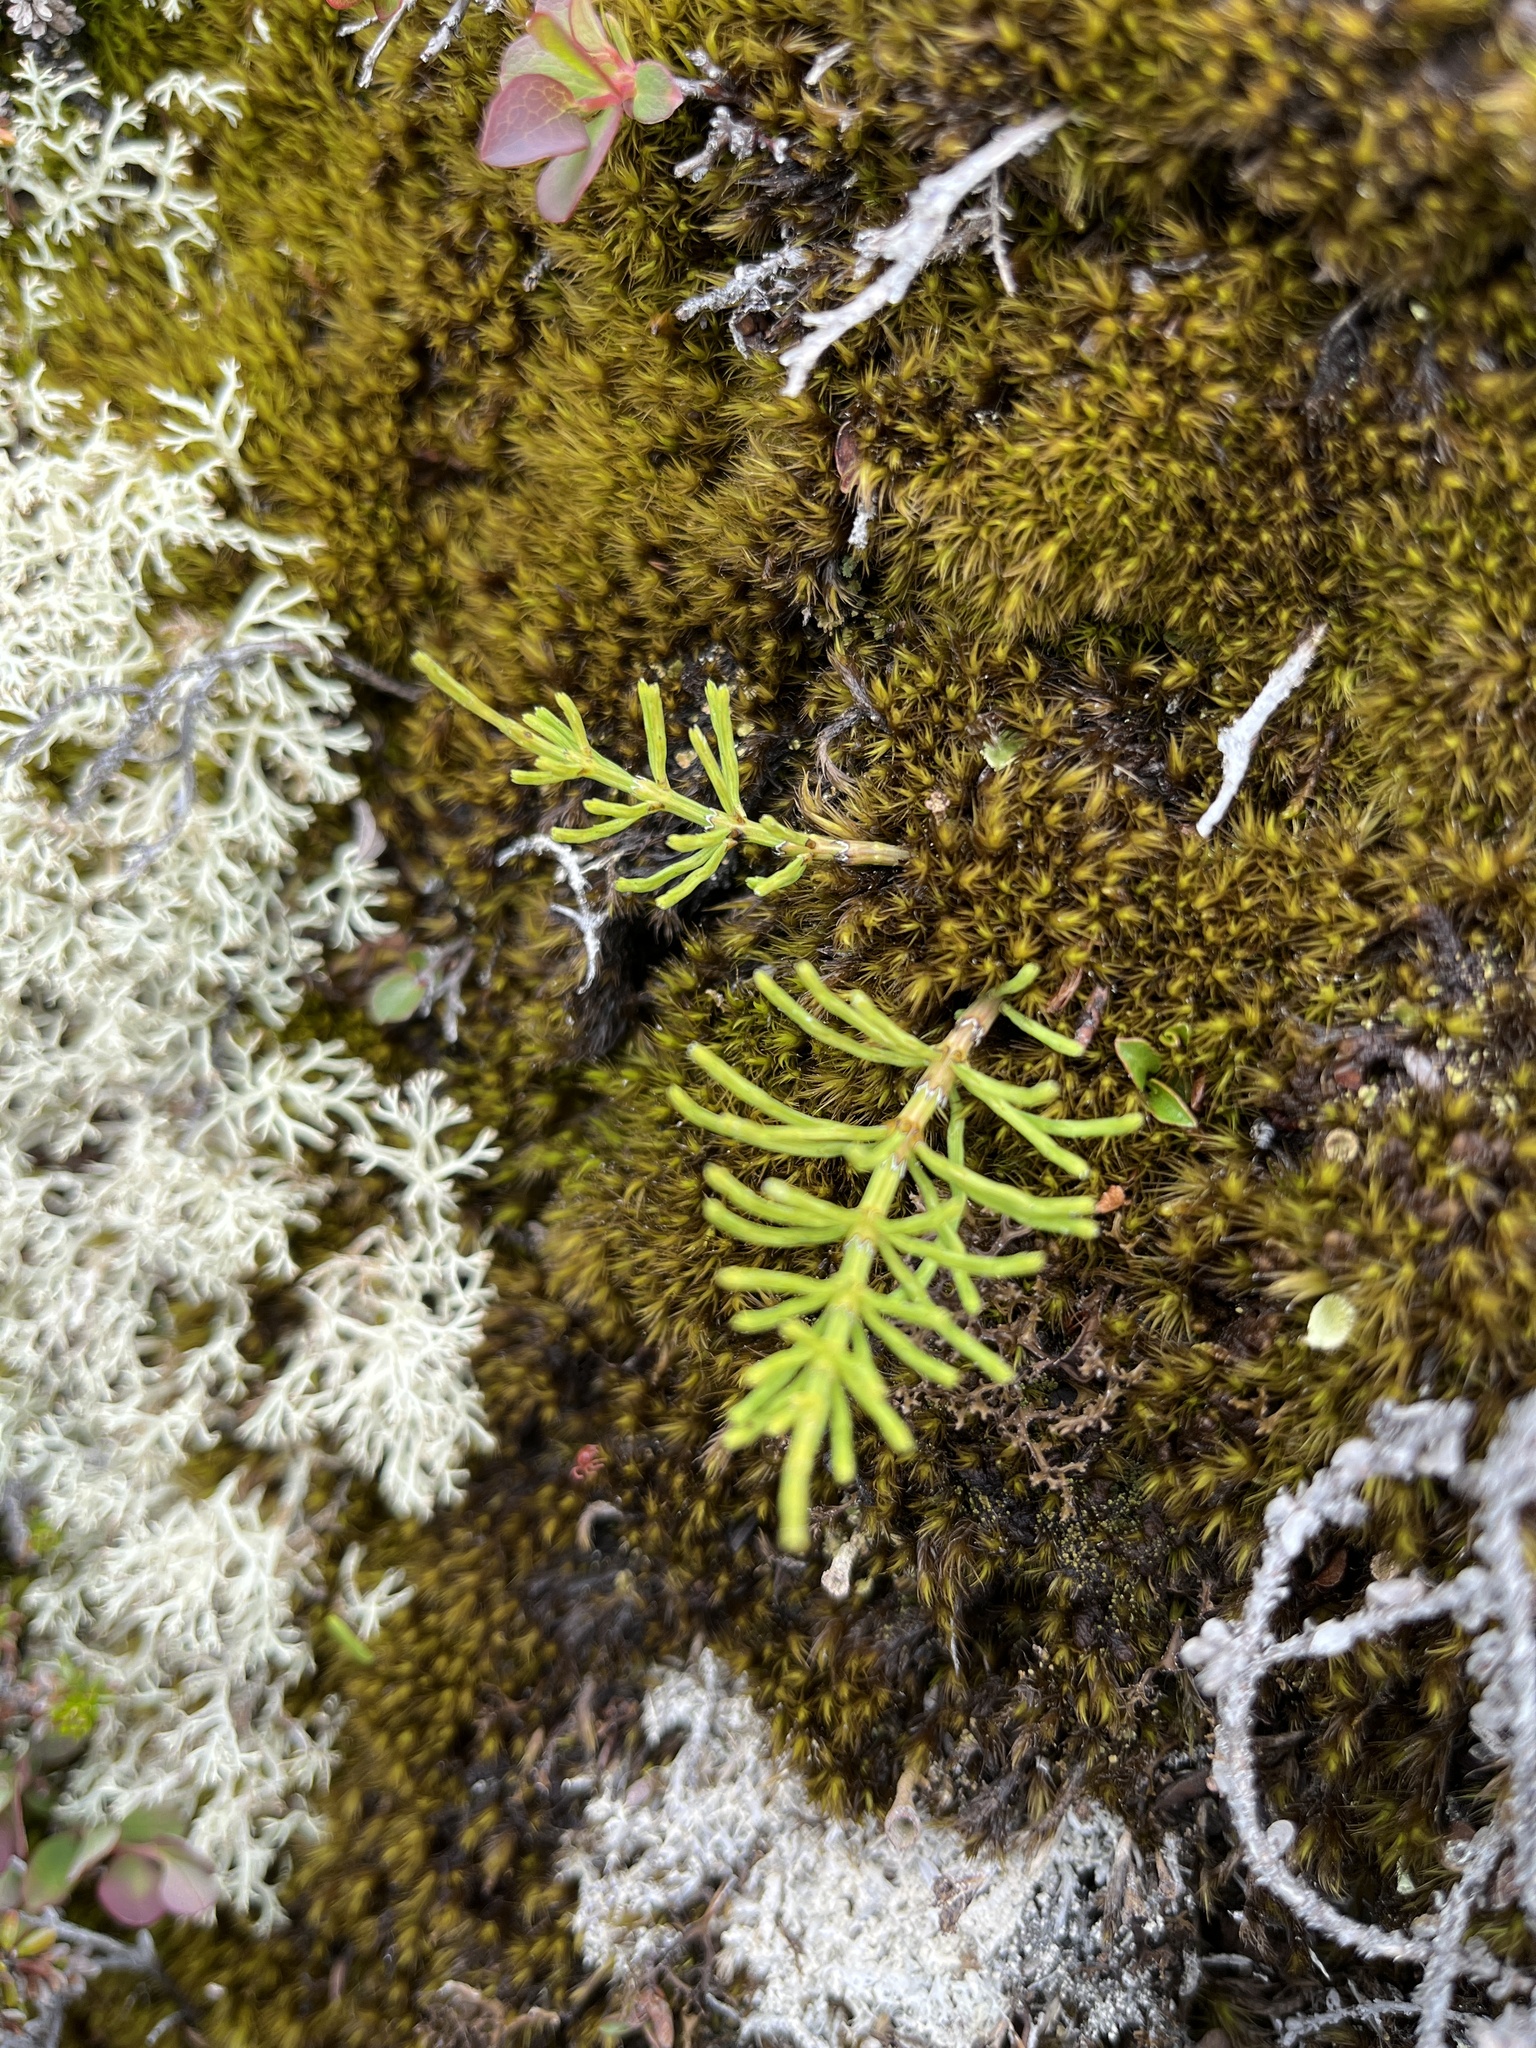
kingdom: Plantae
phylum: Tracheophyta
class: Polypodiopsida
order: Equisetales
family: Equisetaceae
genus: Equisetum
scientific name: Equisetum arvense
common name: Field horsetail
